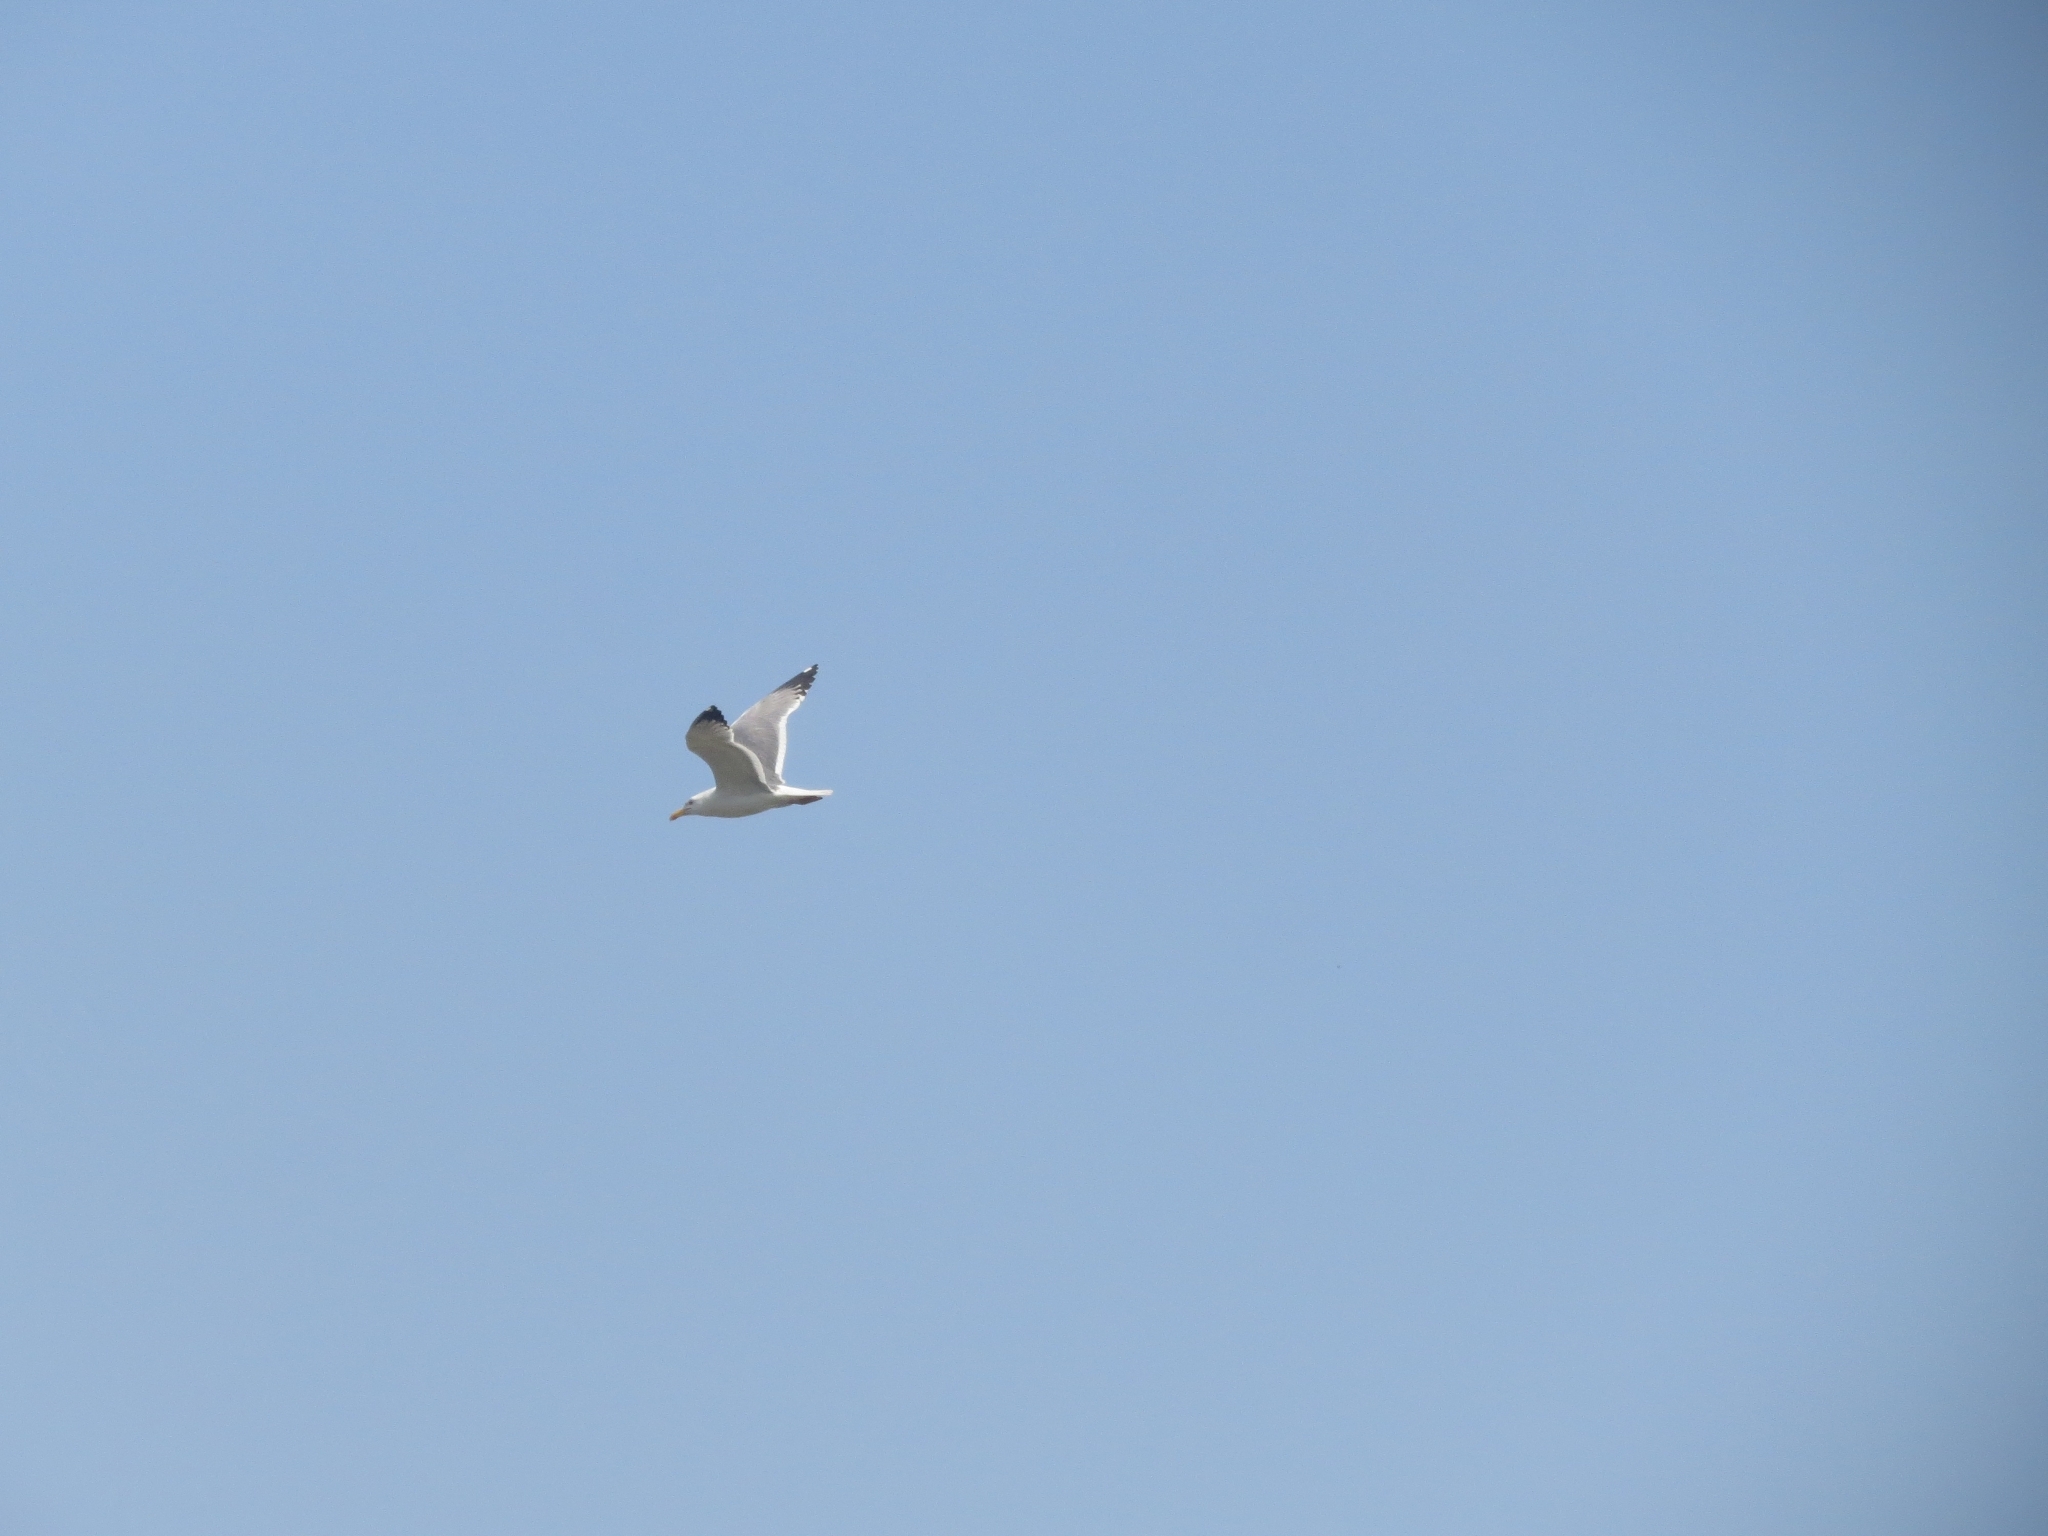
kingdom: Animalia
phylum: Chordata
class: Aves
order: Charadriiformes
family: Laridae
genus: Larus
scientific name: Larus fuscus
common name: Lesser black-backed gull
